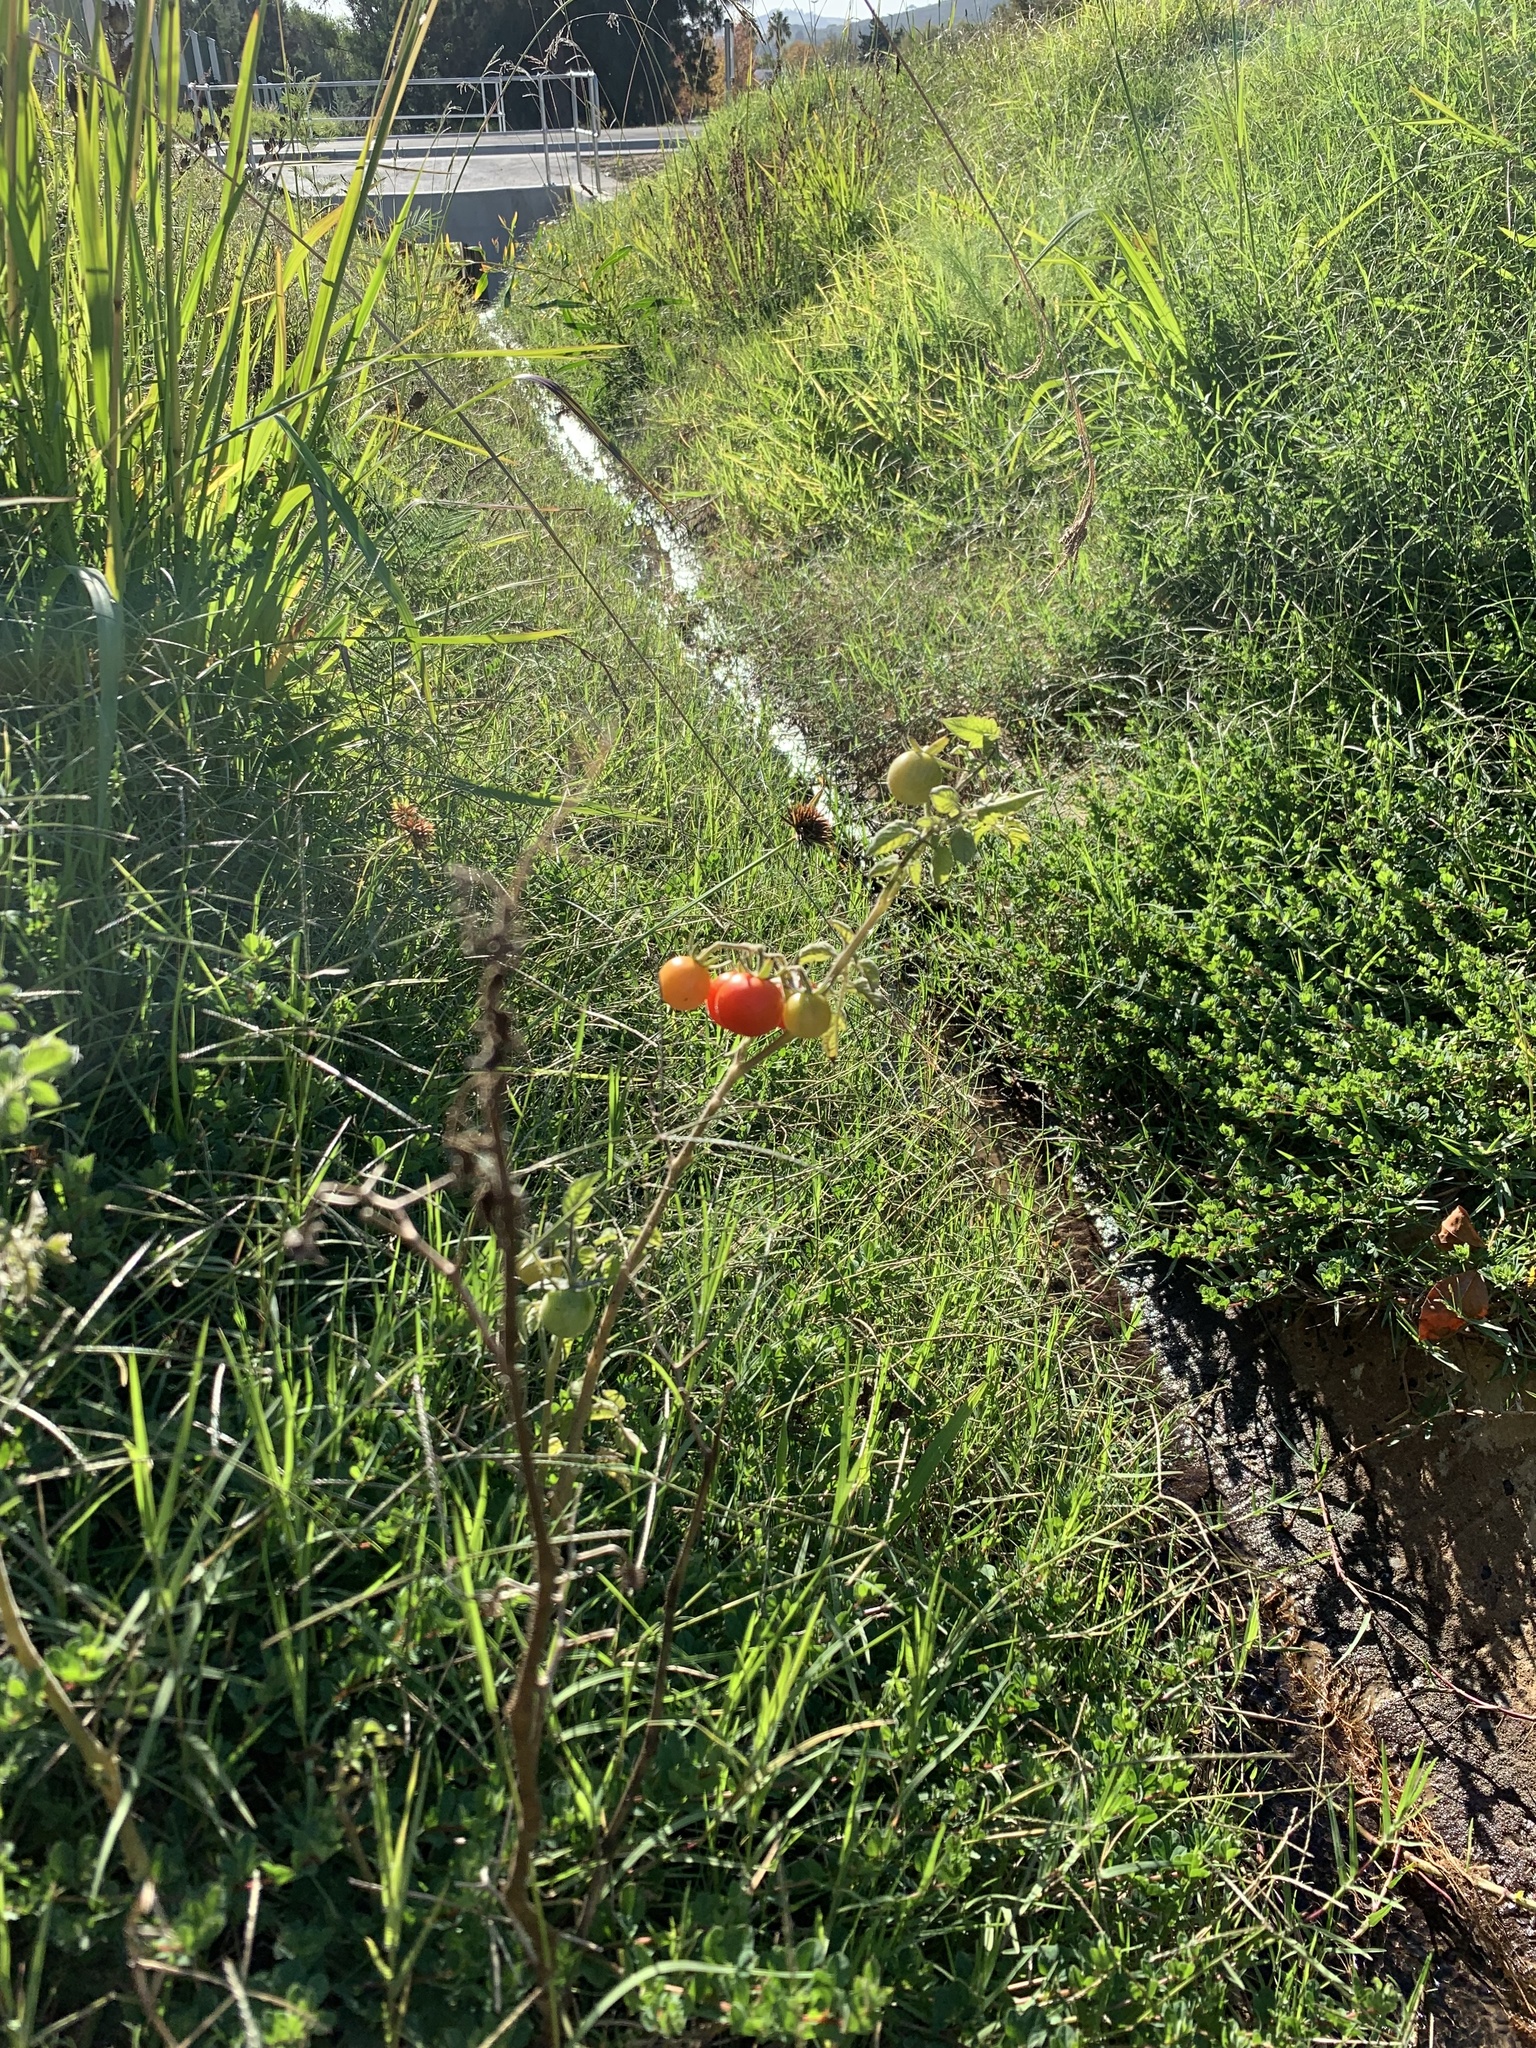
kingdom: Plantae
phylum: Tracheophyta
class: Magnoliopsida
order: Solanales
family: Solanaceae
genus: Solanum
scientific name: Solanum lycopersicum
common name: Garden tomato
